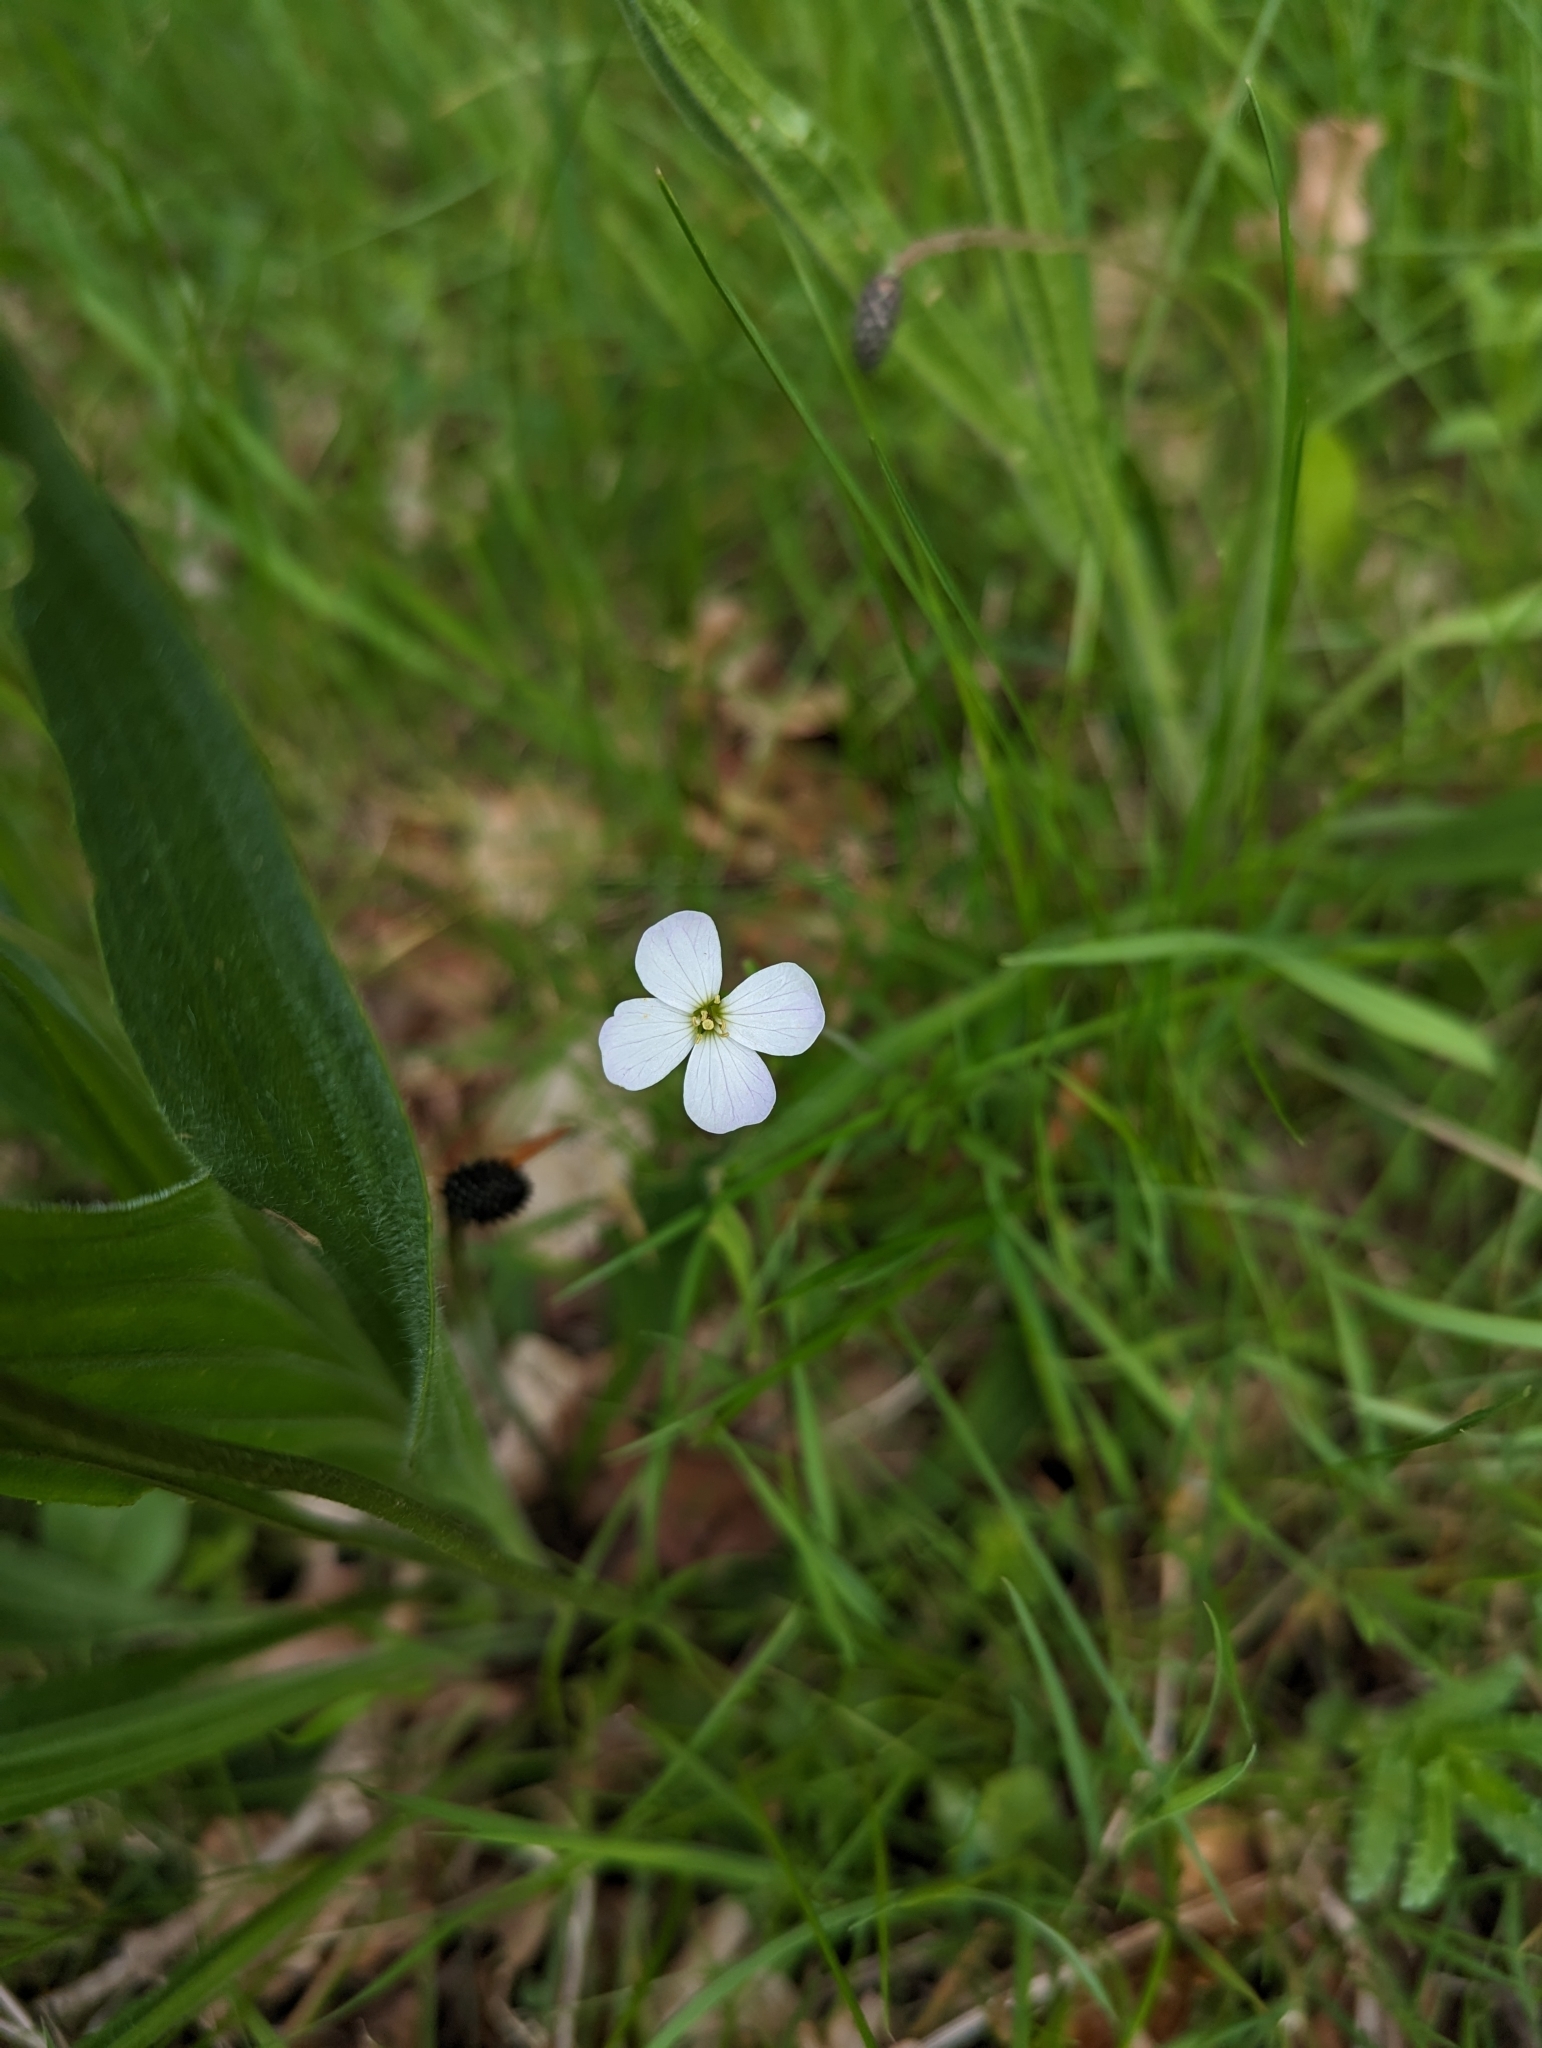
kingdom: Plantae
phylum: Tracheophyta
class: Magnoliopsida
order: Brassicales
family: Brassicaceae
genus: Cardamine
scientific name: Cardamine pratensis
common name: Cuckoo flower
